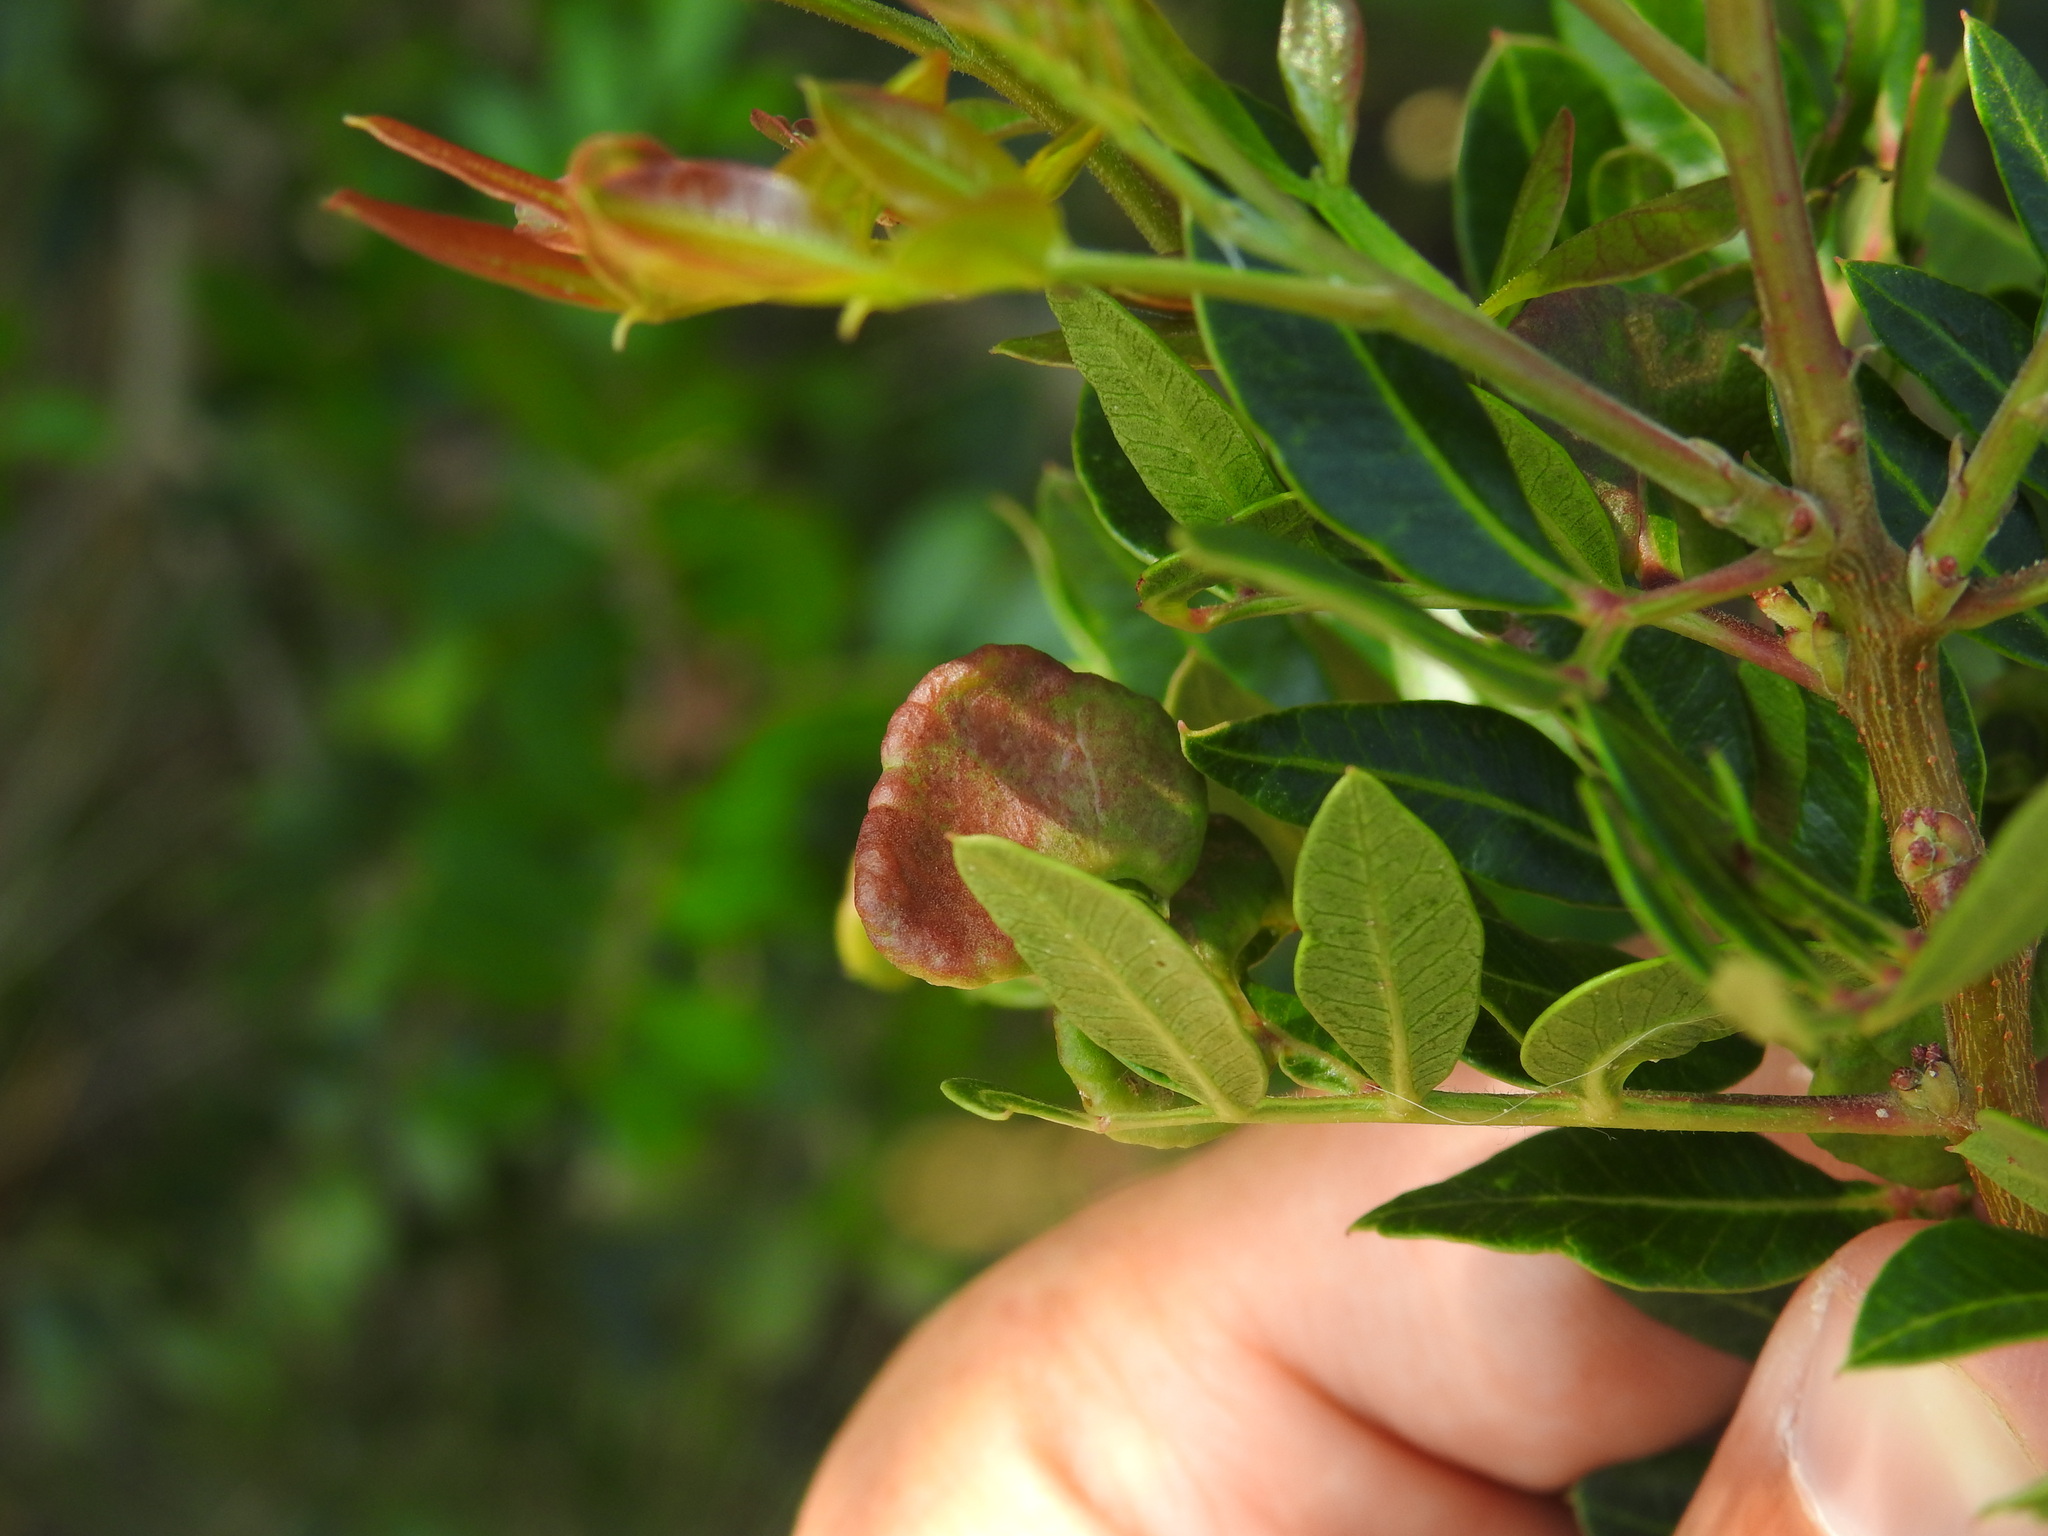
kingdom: Animalia
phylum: Arthropoda
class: Insecta
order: Hemiptera
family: Aphididae
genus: Aploneura
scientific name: Aploneura lentisci
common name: Mealy grass root aphid
